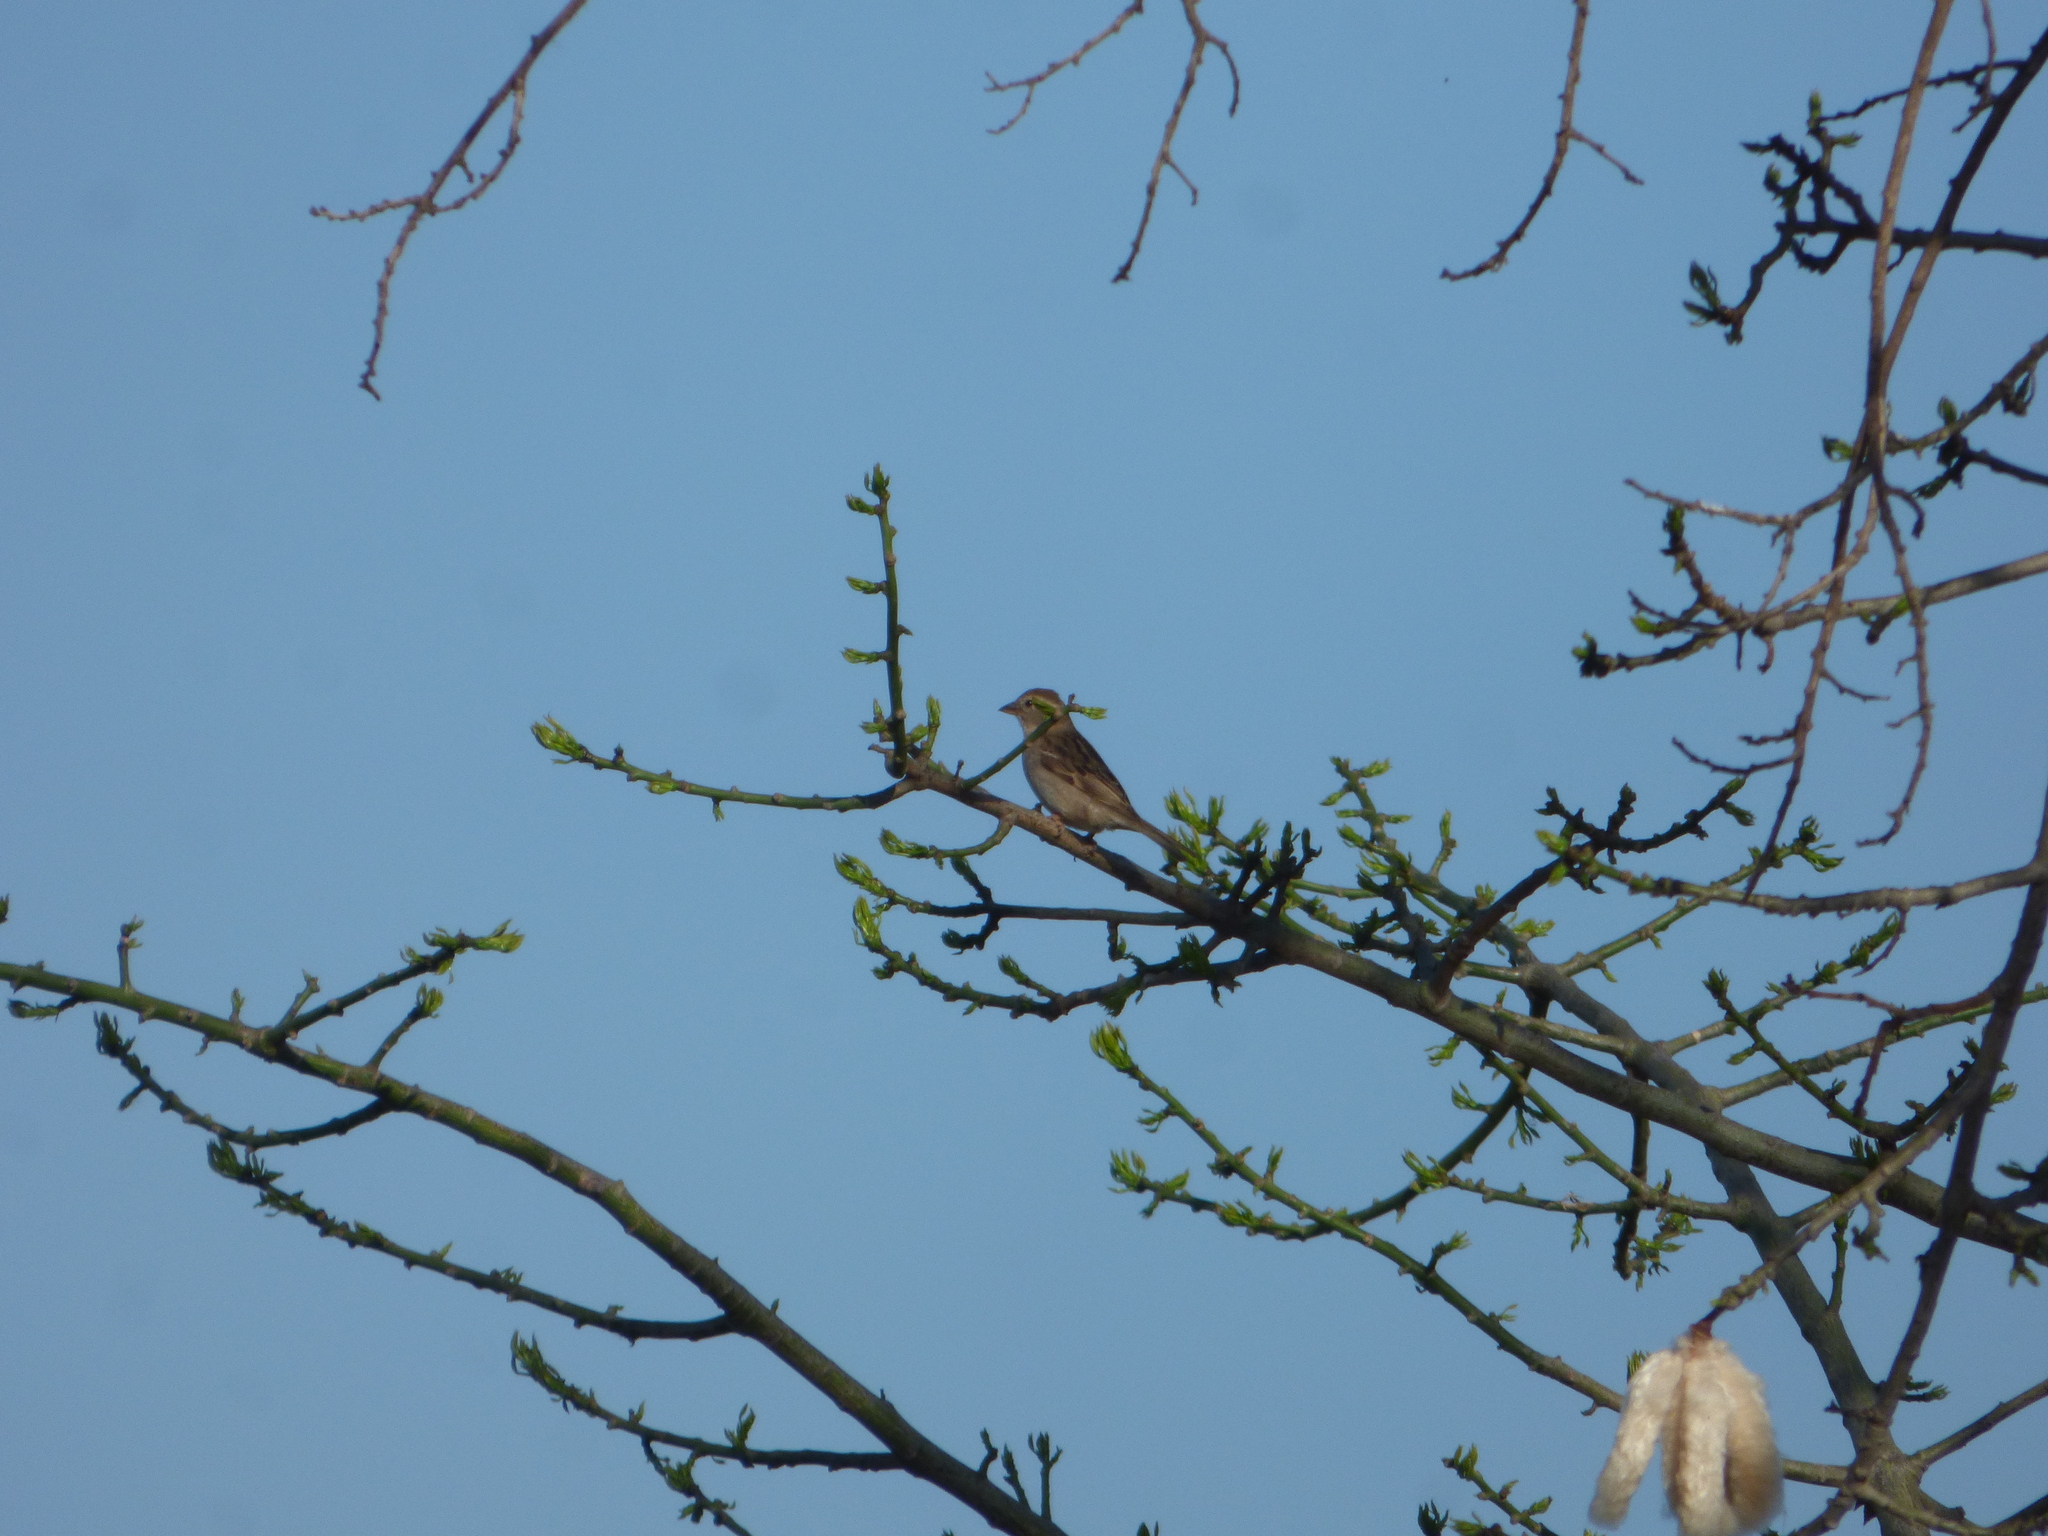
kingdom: Animalia
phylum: Chordata
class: Aves
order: Passeriformes
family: Passeridae
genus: Passer
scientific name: Passer domesticus
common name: House sparrow
